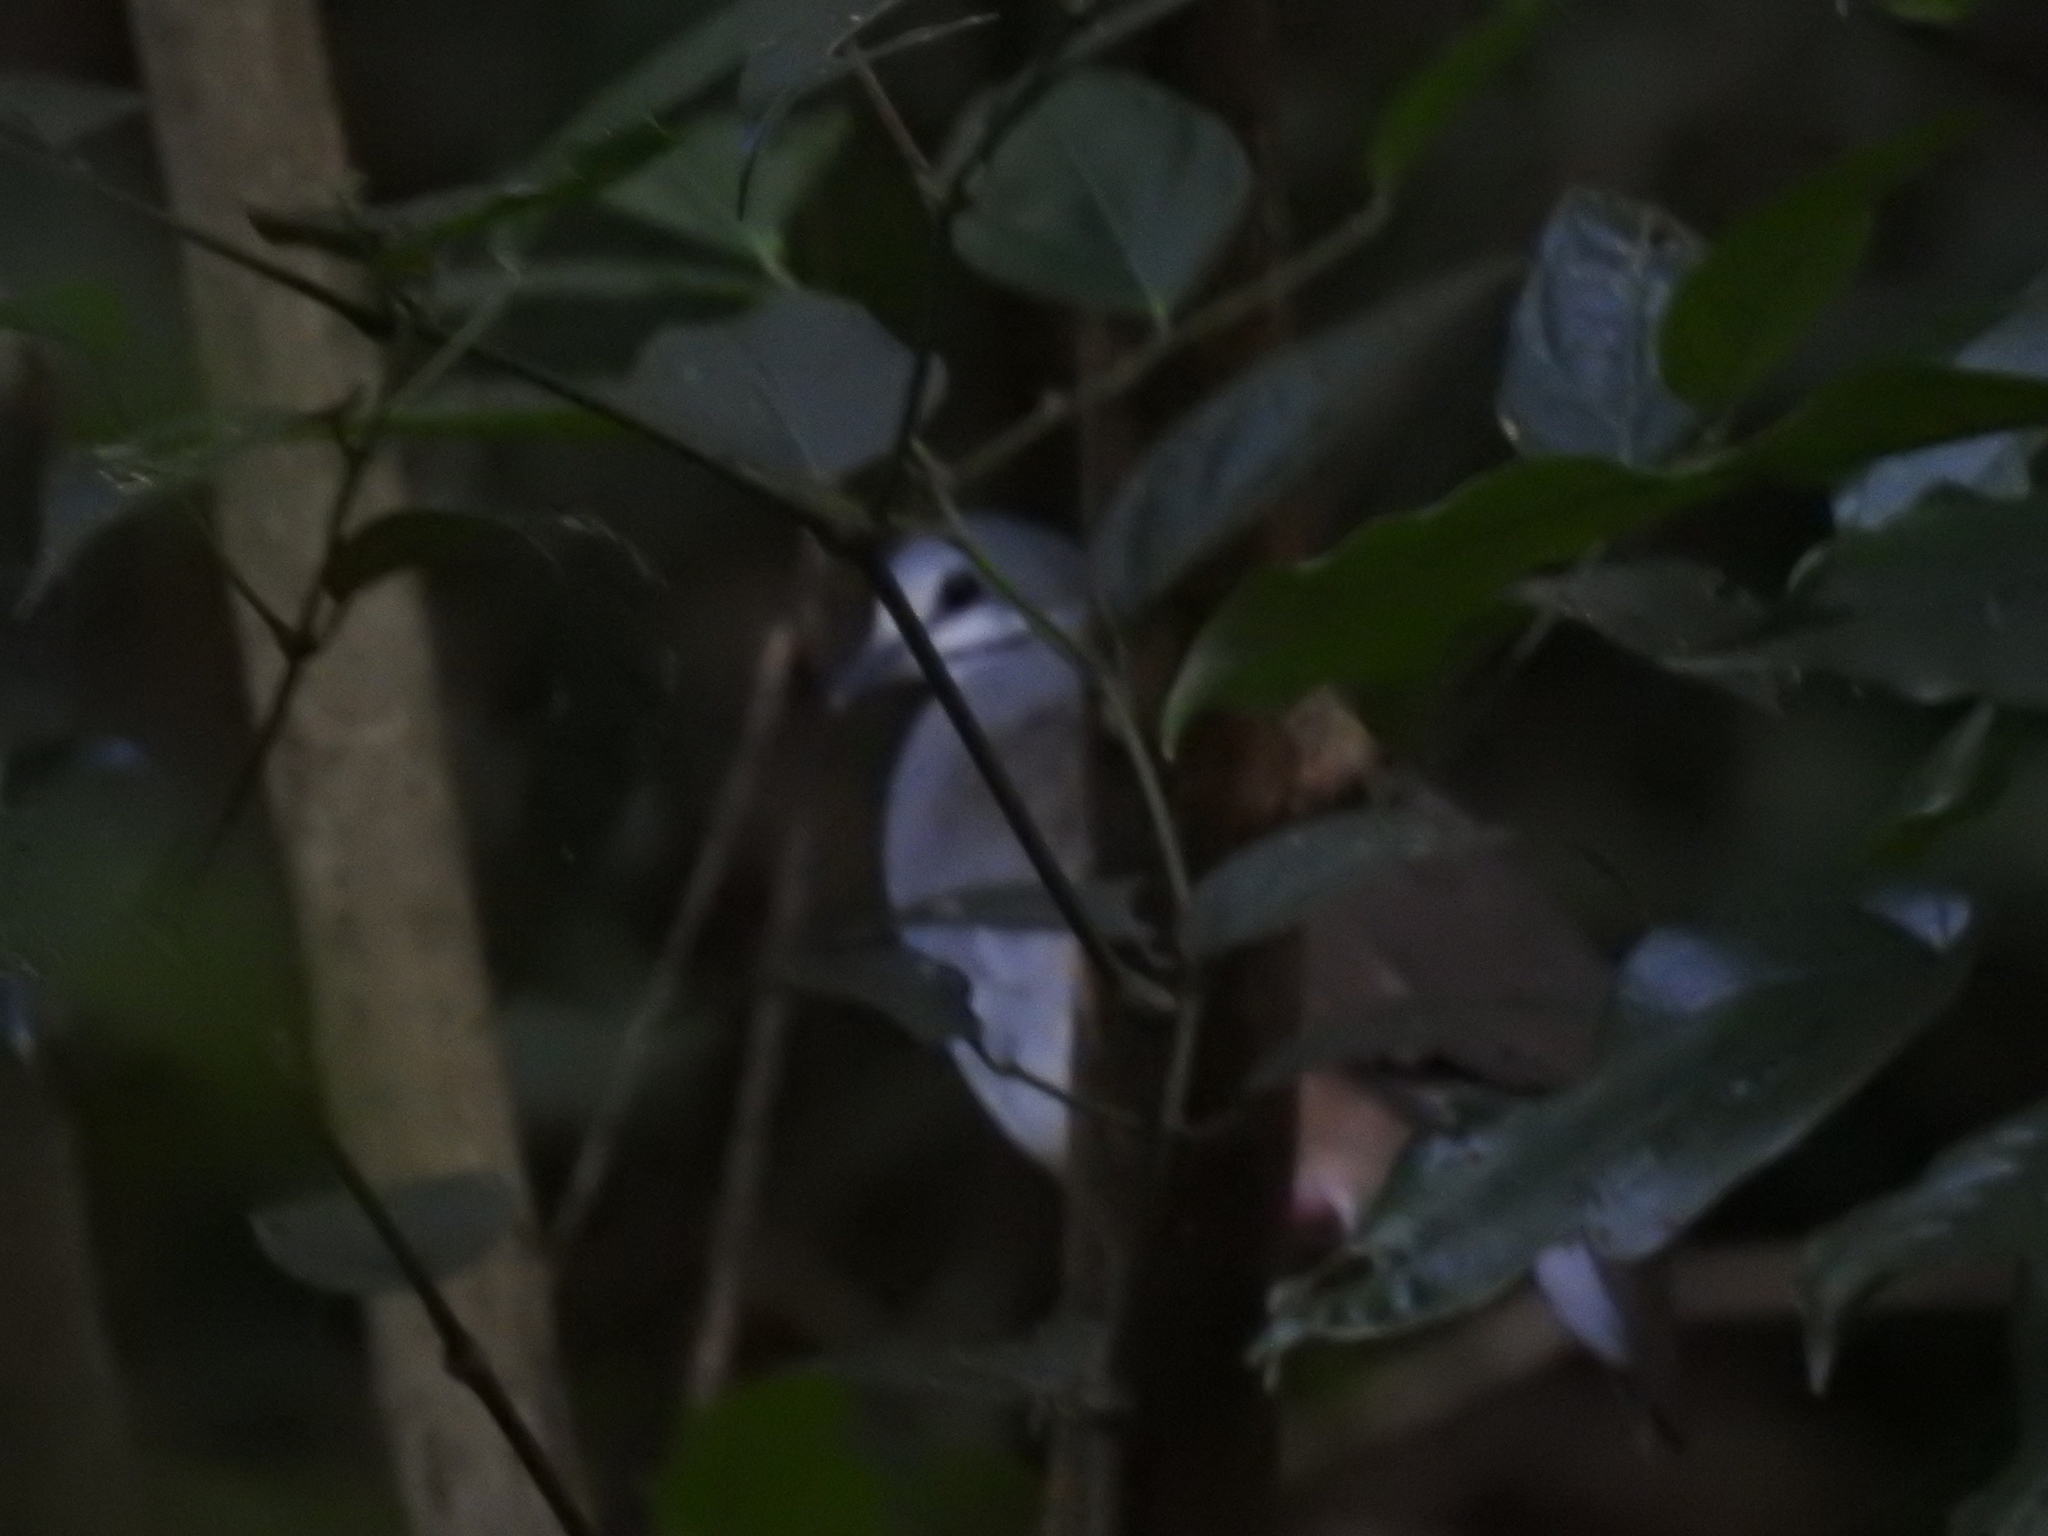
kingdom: Animalia
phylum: Chordata
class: Aves
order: Columbiformes
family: Columbidae
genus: Zentrygon
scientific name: Zentrygon carrikeri
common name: Tuxtla quail-dove
